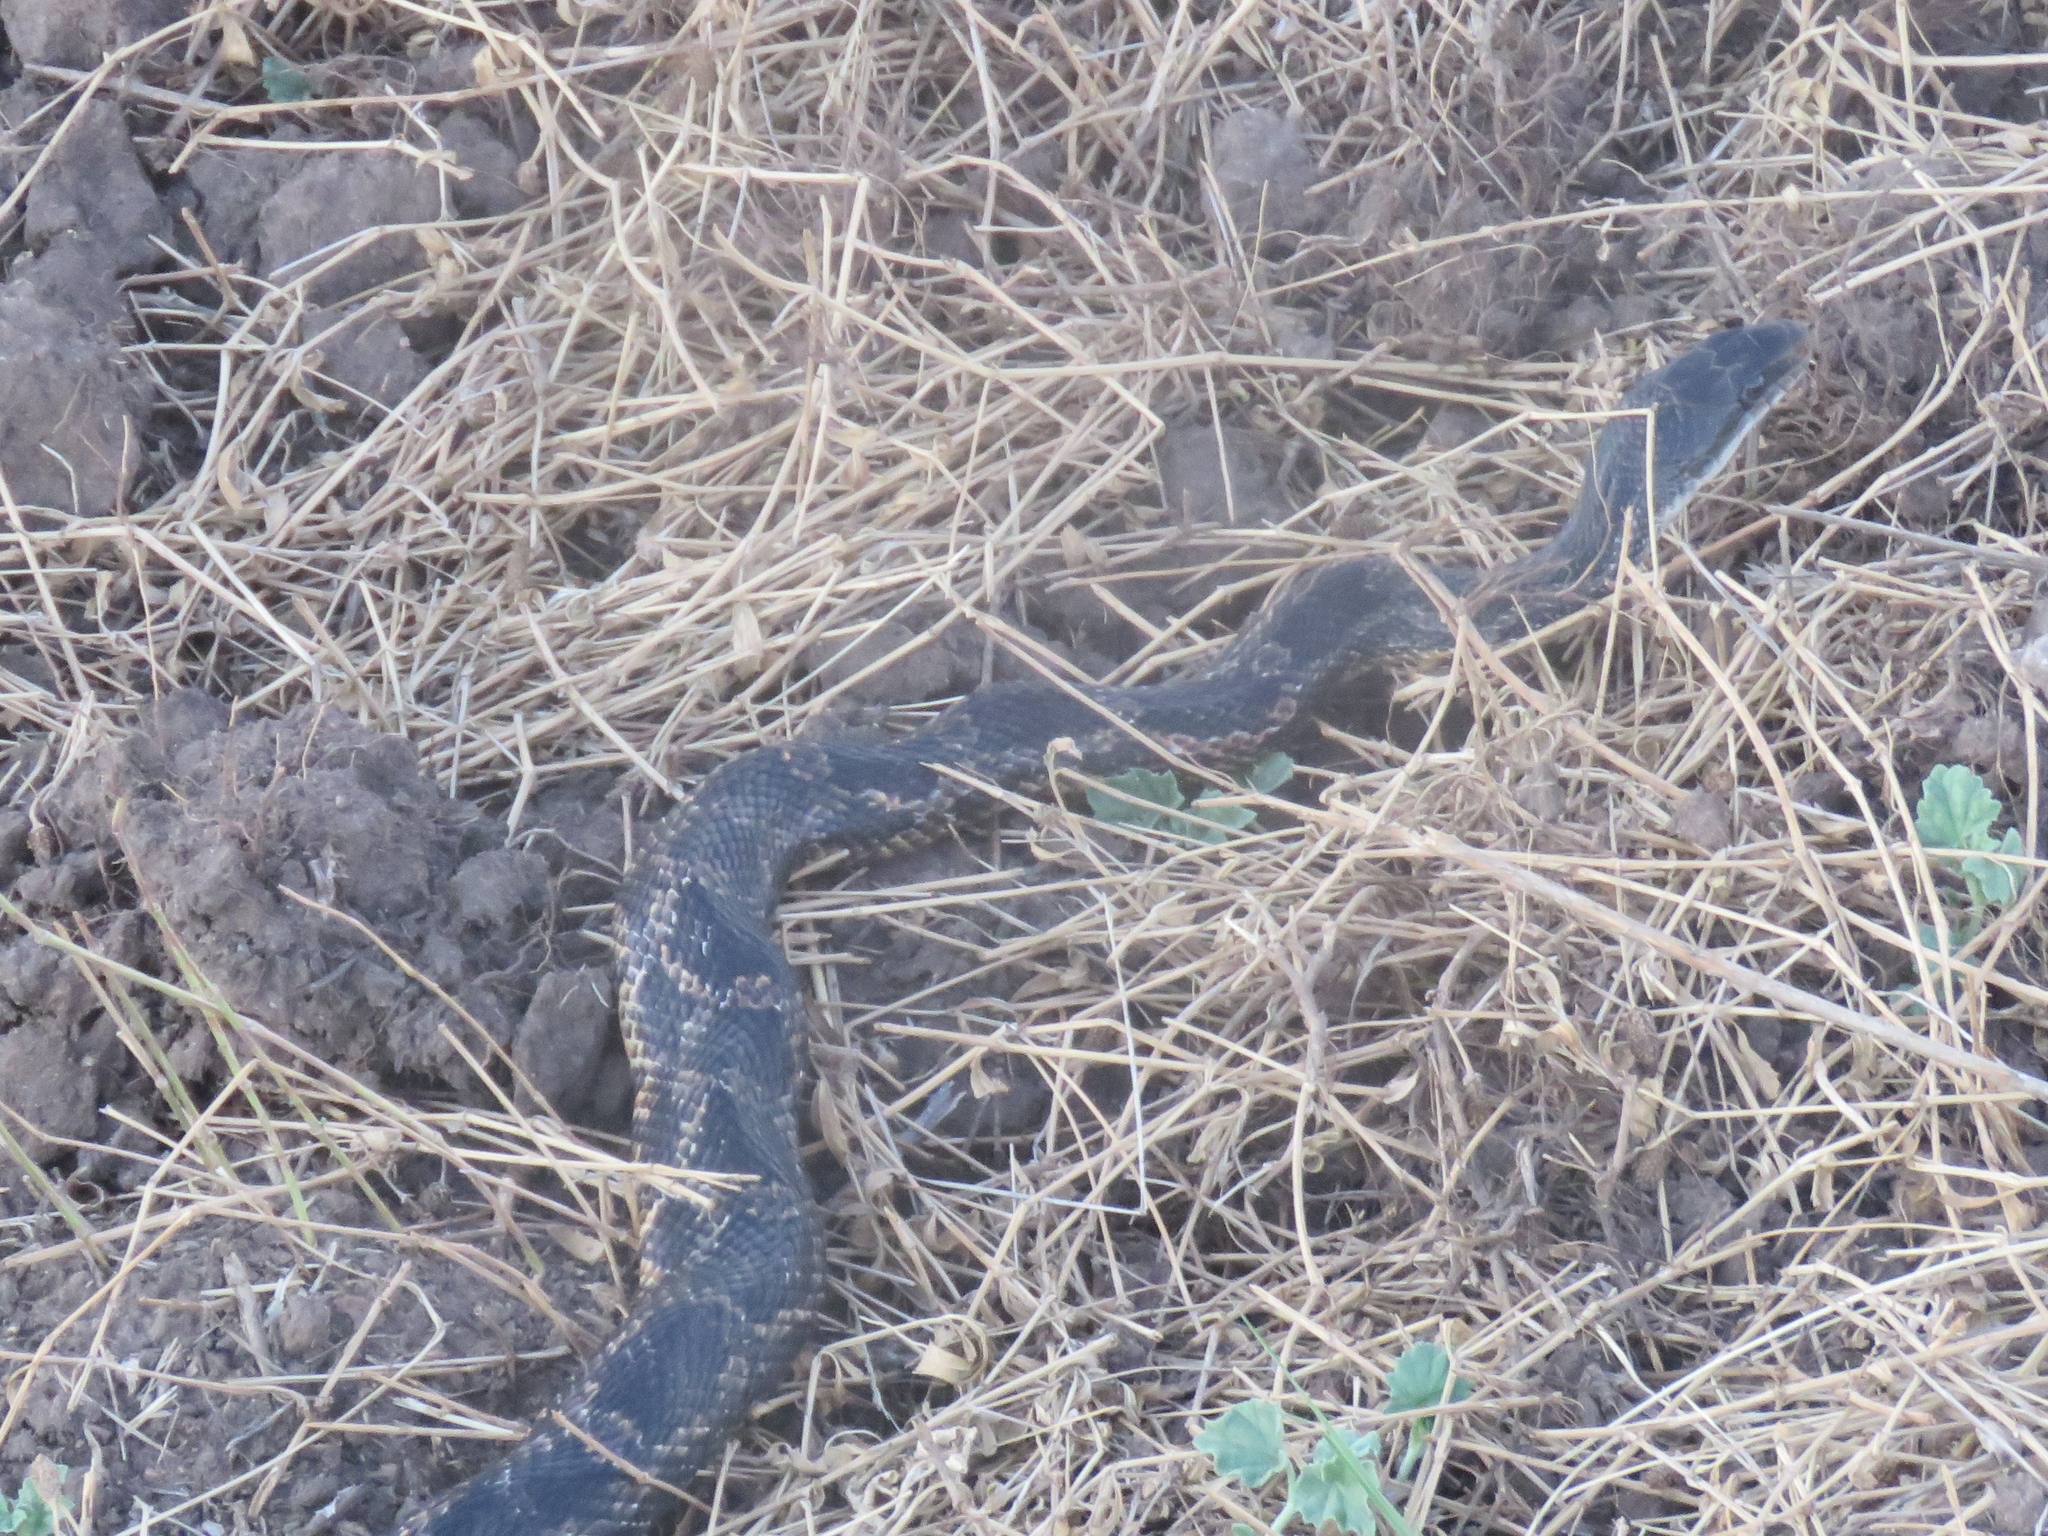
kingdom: Animalia
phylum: Chordata
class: Squamata
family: Colubridae
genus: Pantherophis
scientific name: Pantherophis obsoletus
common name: Black rat snake
